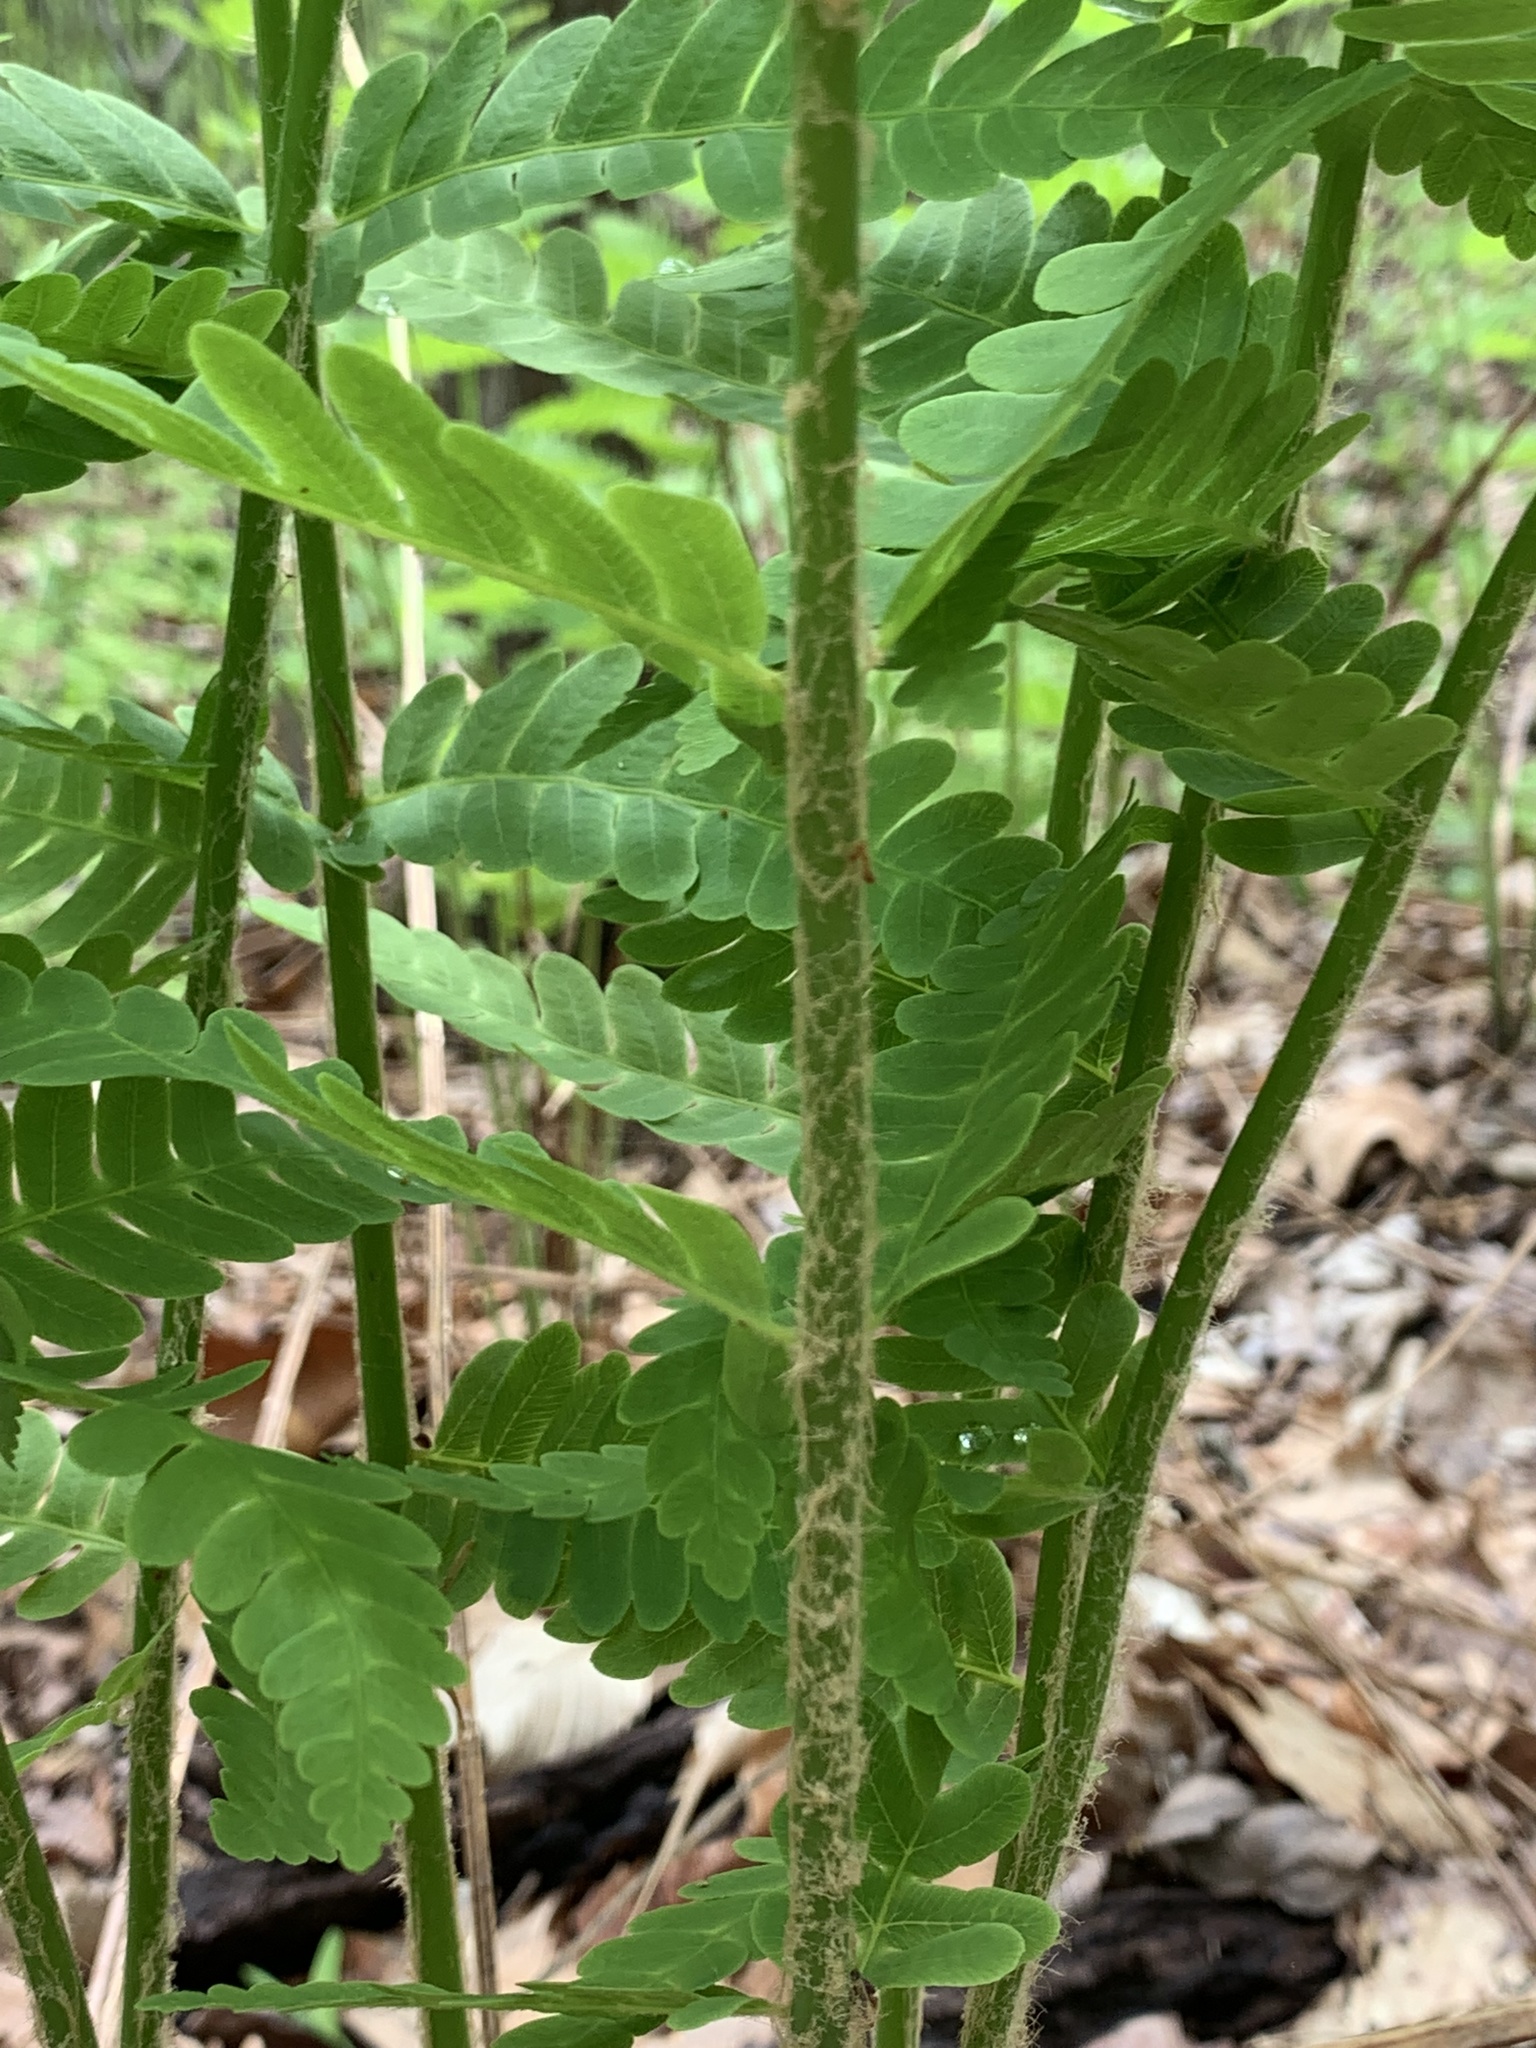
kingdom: Plantae
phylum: Tracheophyta
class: Polypodiopsida
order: Osmundales
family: Osmundaceae
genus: Osmundastrum
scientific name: Osmundastrum cinnamomeum
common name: Cinnamon fern
